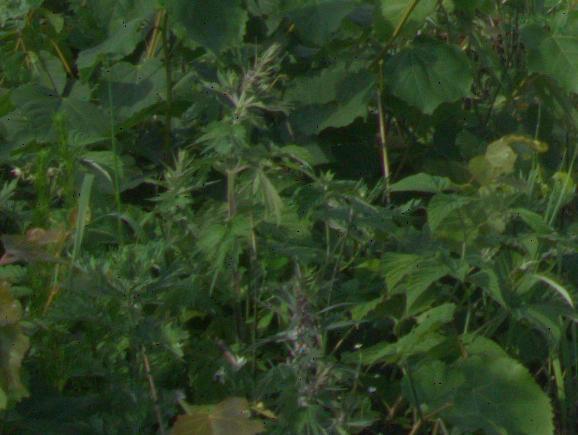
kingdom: Plantae
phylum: Tracheophyta
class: Magnoliopsida
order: Lamiales
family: Lamiaceae
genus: Leonurus
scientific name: Leonurus quinquelobatus
